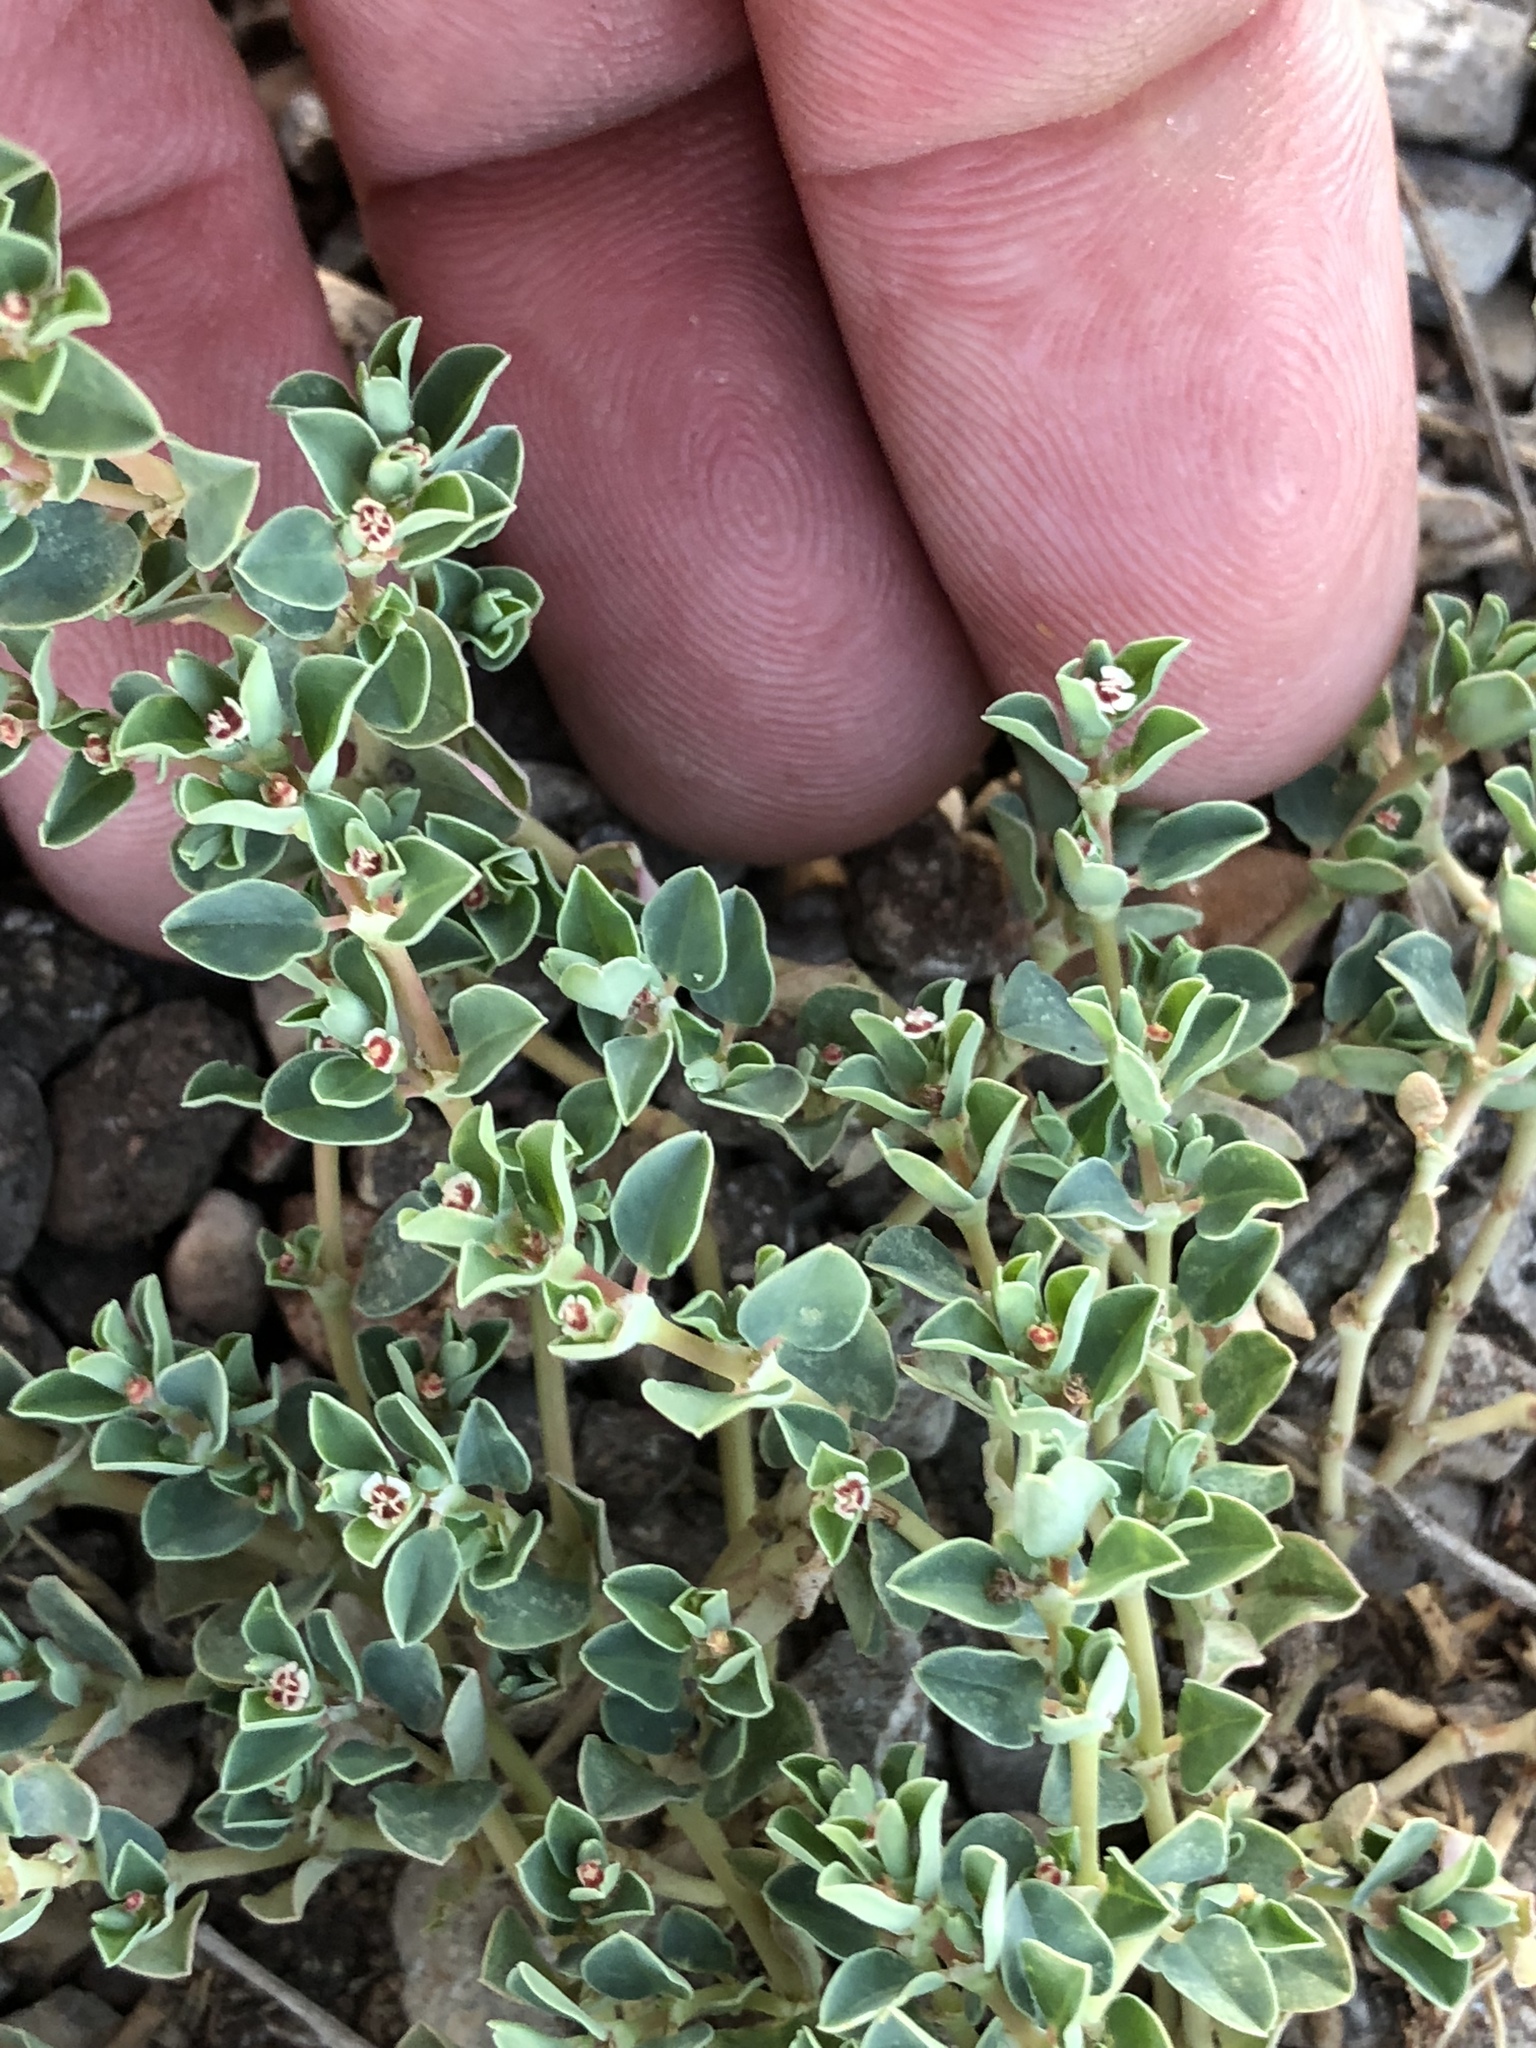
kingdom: Plantae
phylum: Tracheophyta
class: Magnoliopsida
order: Malpighiales
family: Euphorbiaceae
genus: Euphorbia
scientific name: Euphorbia albomarginata
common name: Whitemargin sandmat
